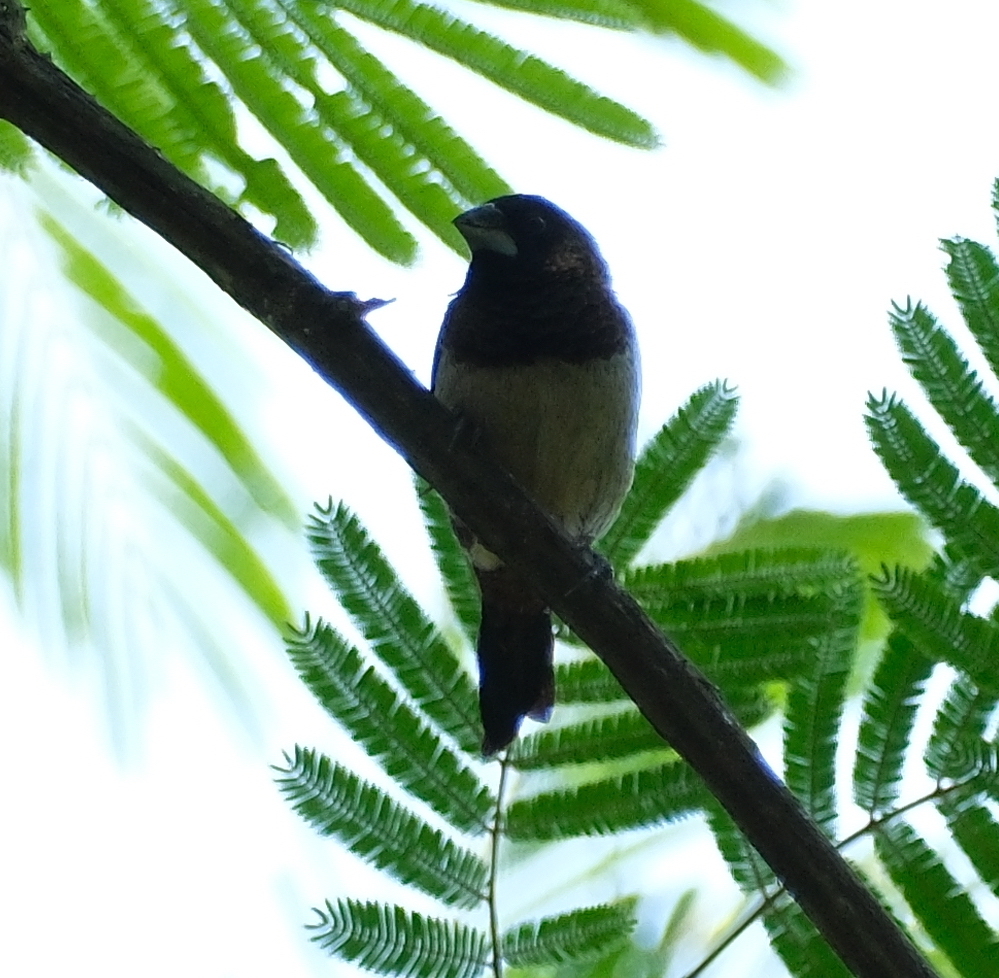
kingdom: Animalia
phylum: Chordata
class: Aves
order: Passeriformes
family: Estrildidae
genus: Lonchura
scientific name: Lonchura striata
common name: White-rumped munia
